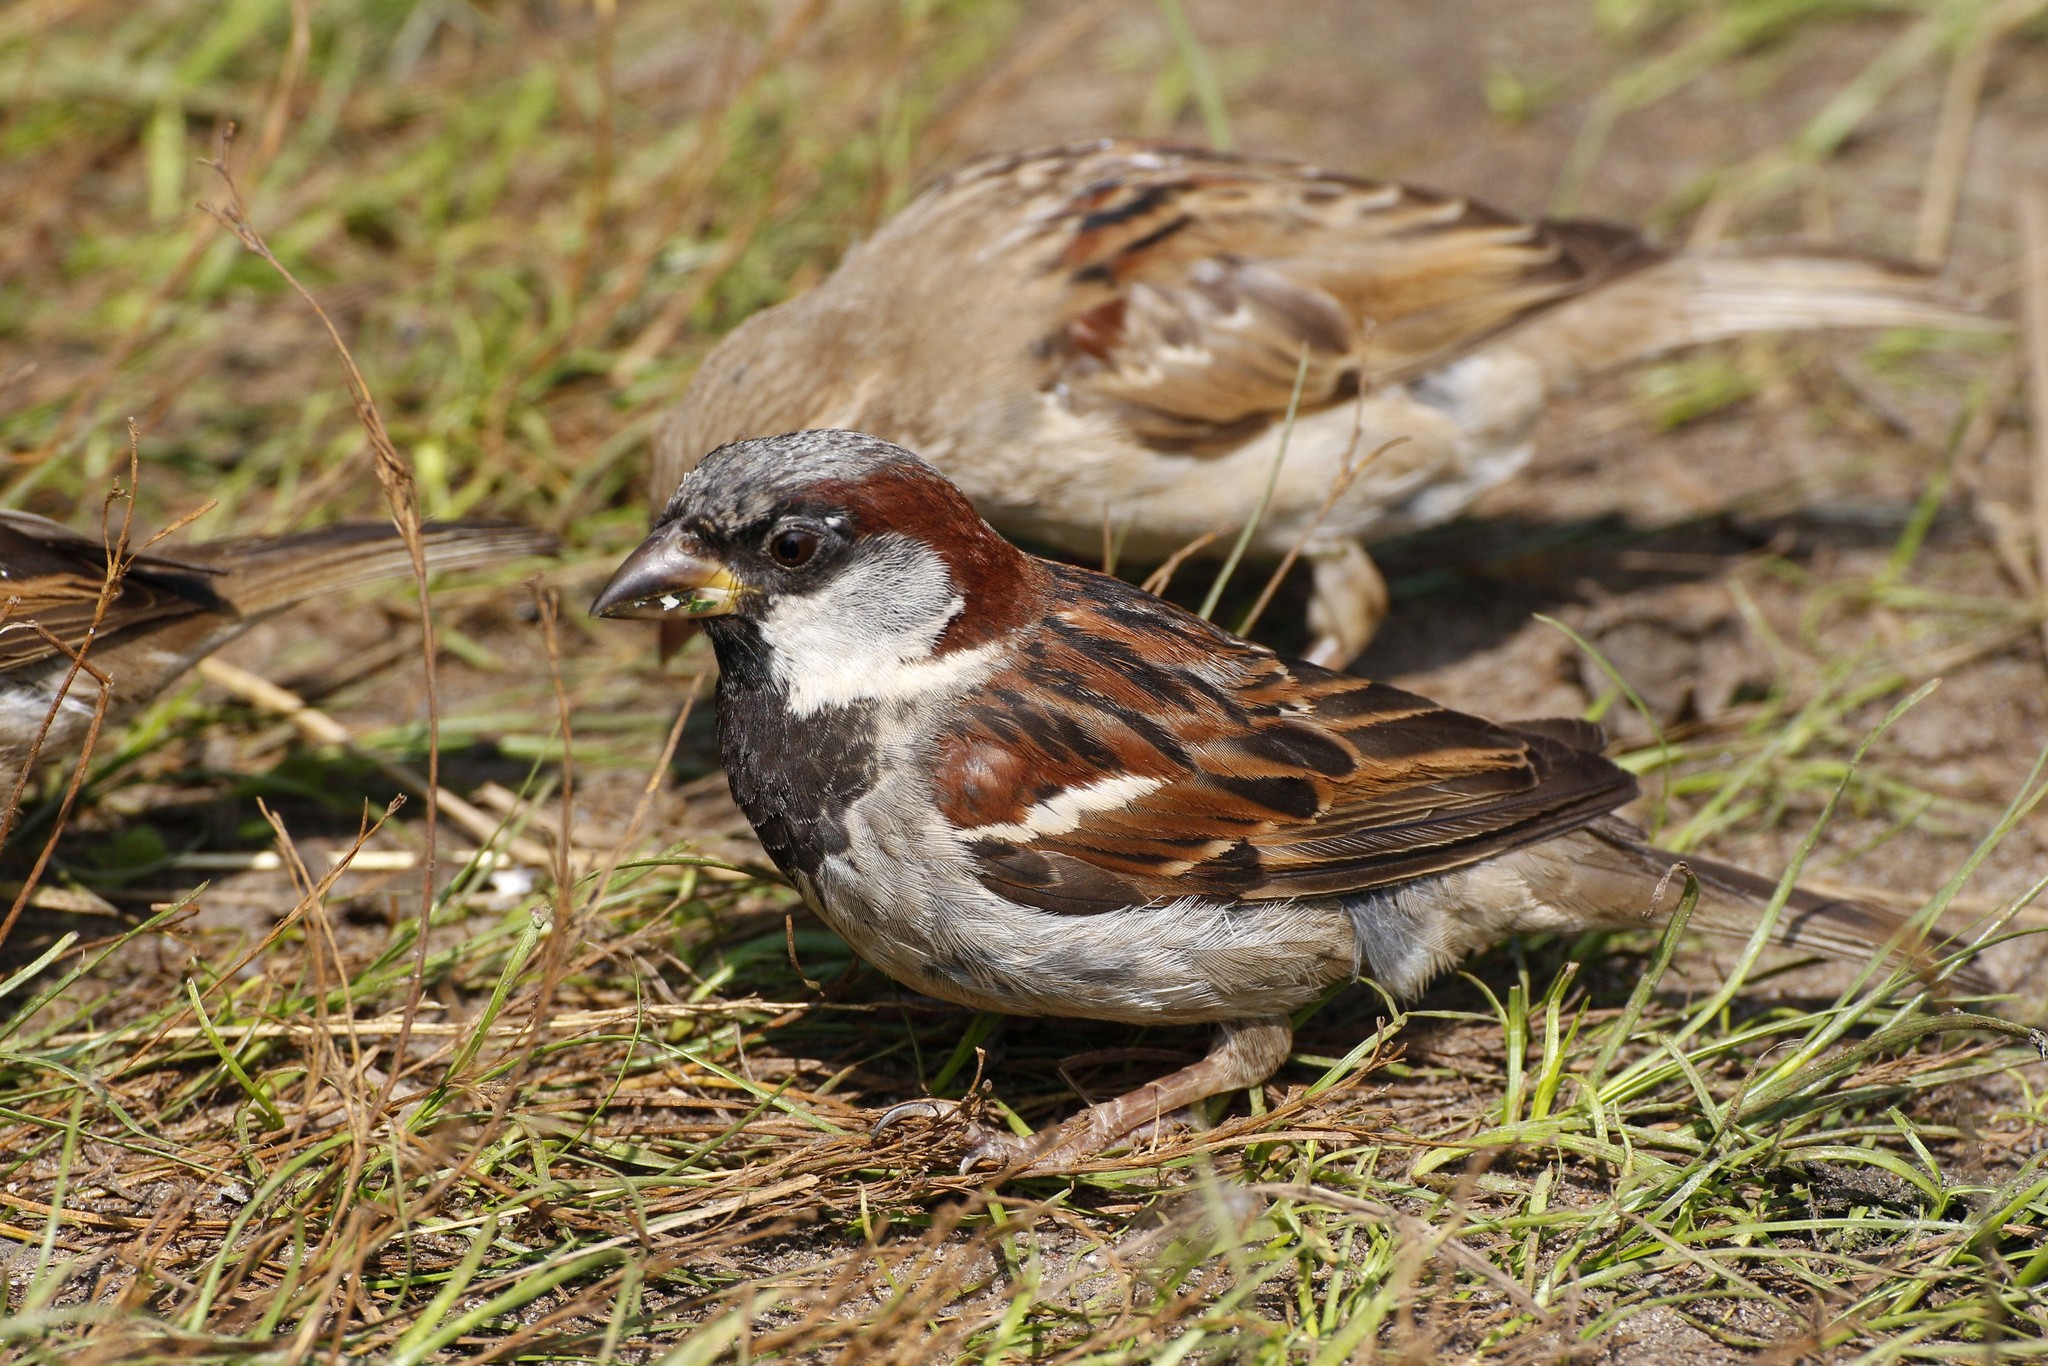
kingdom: Animalia
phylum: Chordata
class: Aves
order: Passeriformes
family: Passeridae
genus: Passer
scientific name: Passer domesticus
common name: House sparrow
